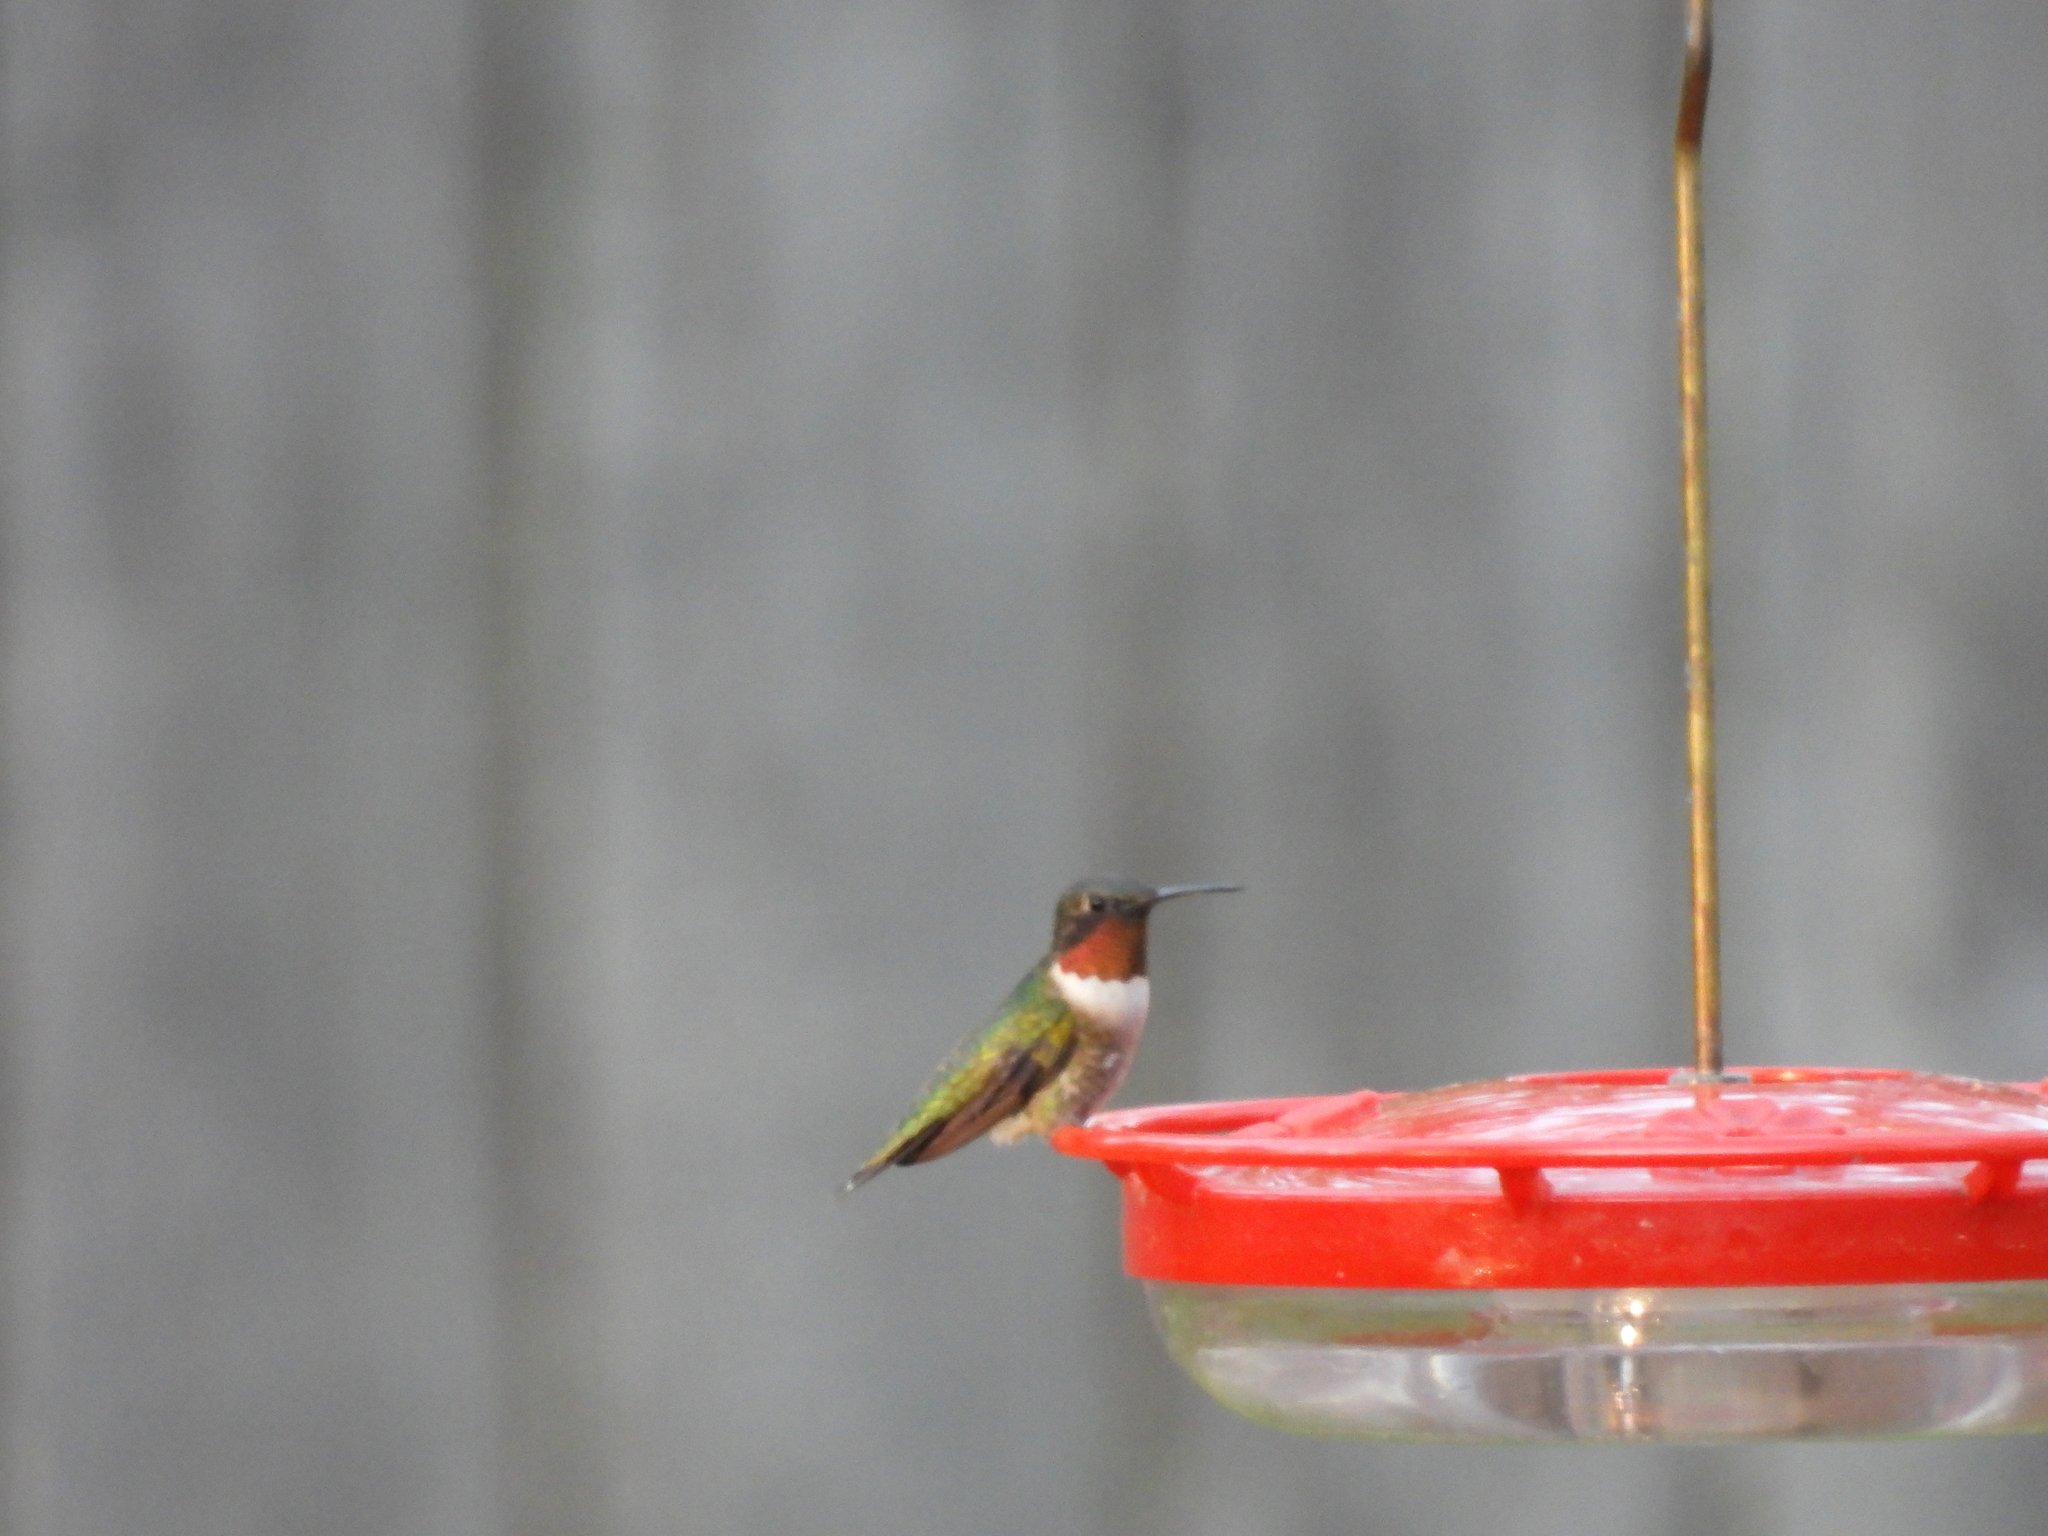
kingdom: Animalia
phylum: Chordata
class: Aves
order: Apodiformes
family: Trochilidae
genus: Archilochus
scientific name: Archilochus colubris
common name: Ruby-throated hummingbird
